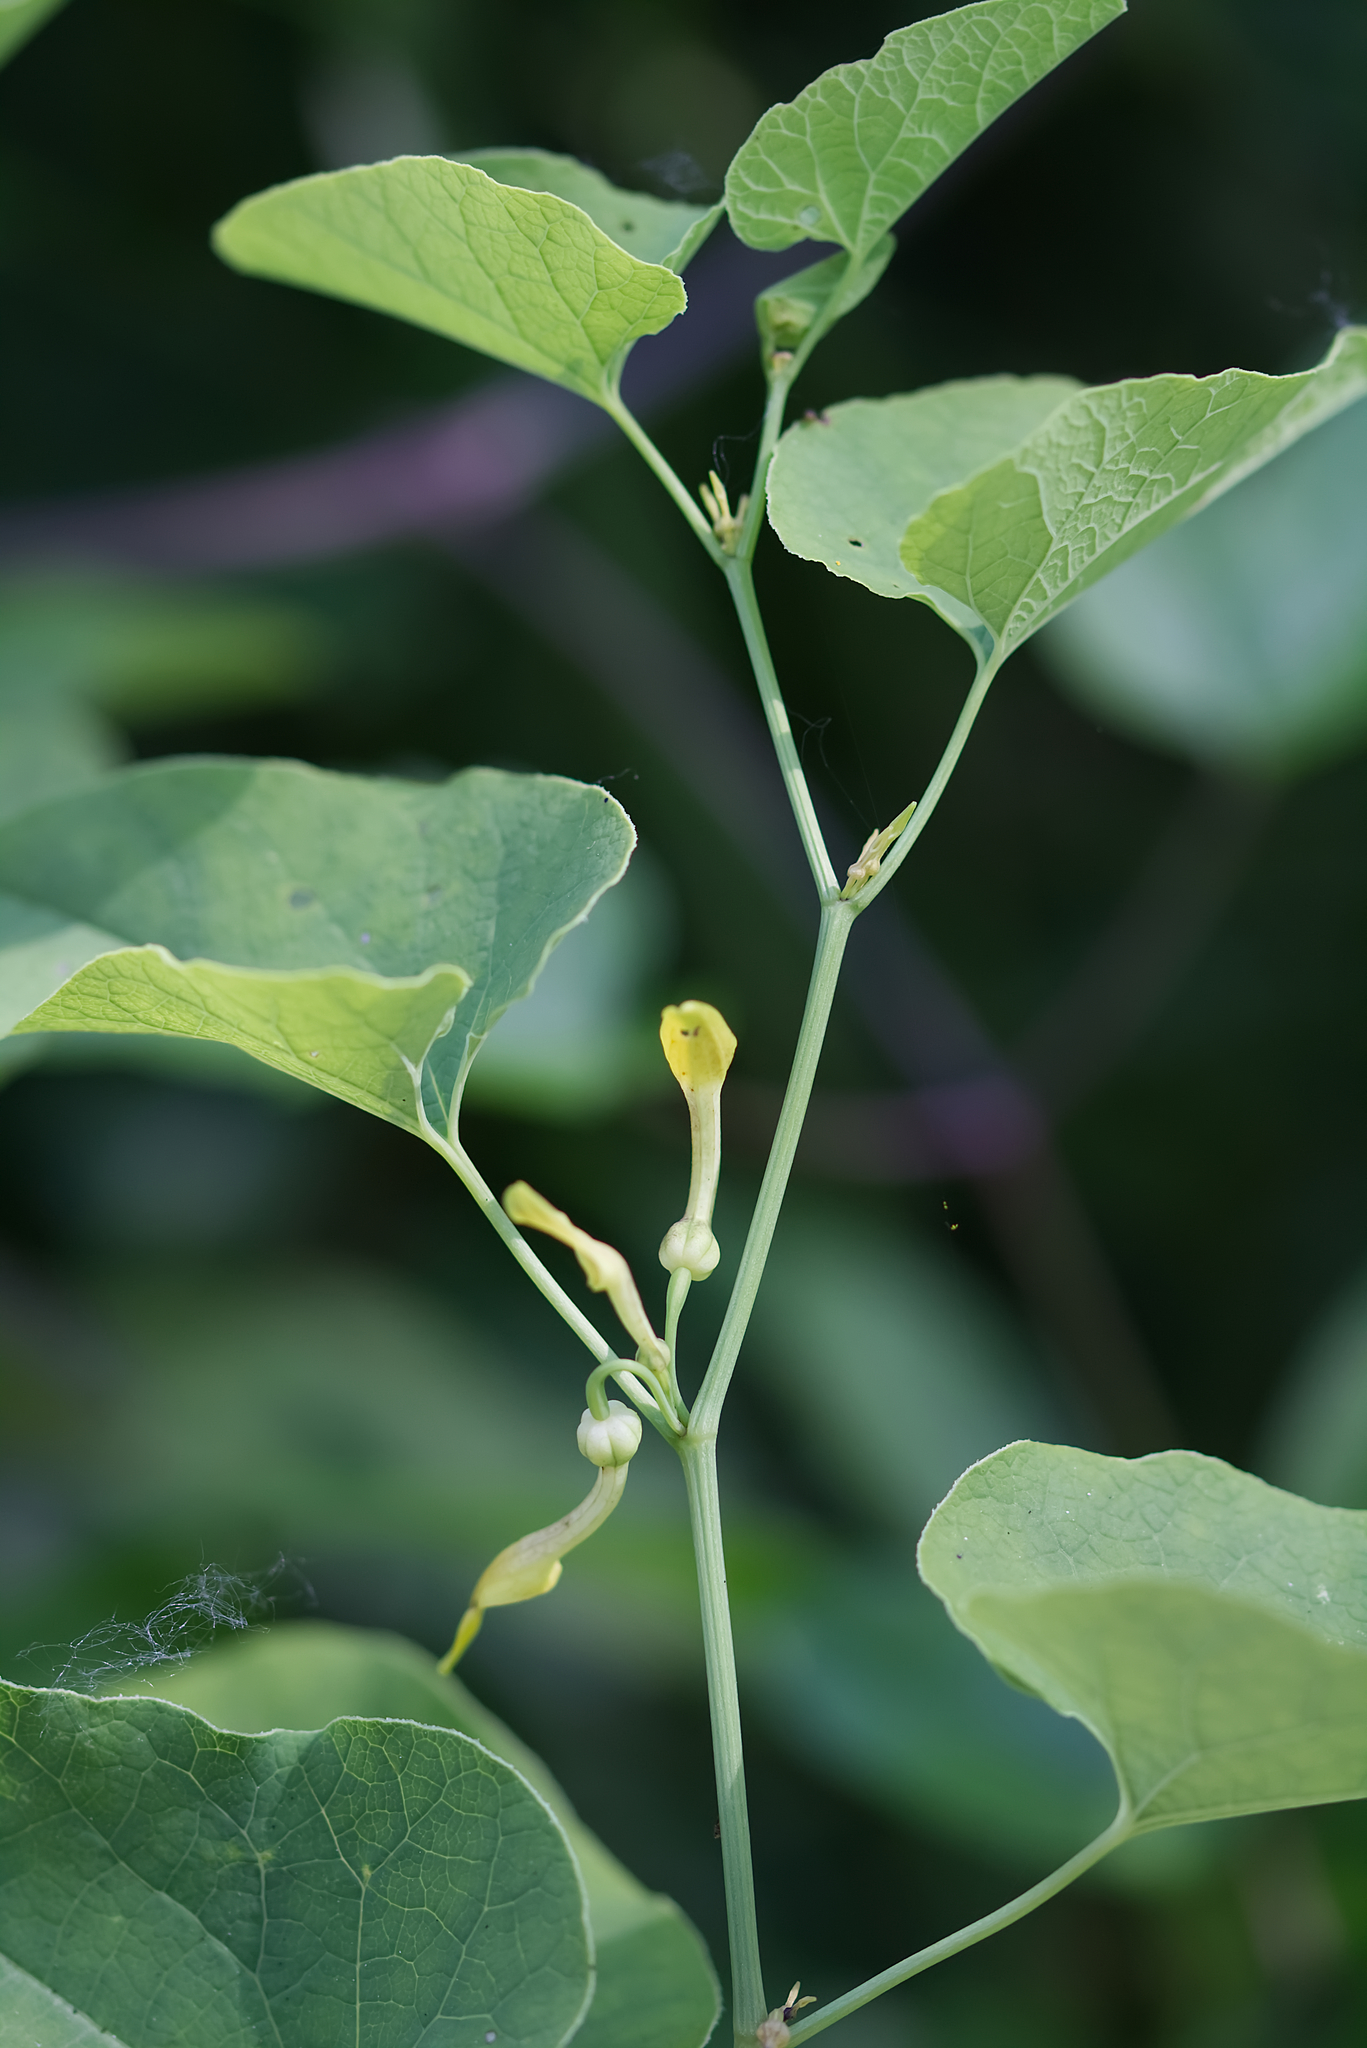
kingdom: Plantae
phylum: Tracheophyta
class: Magnoliopsida
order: Piperales
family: Aristolochiaceae
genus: Aristolochia
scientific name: Aristolochia clematitis
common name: Birthwort
